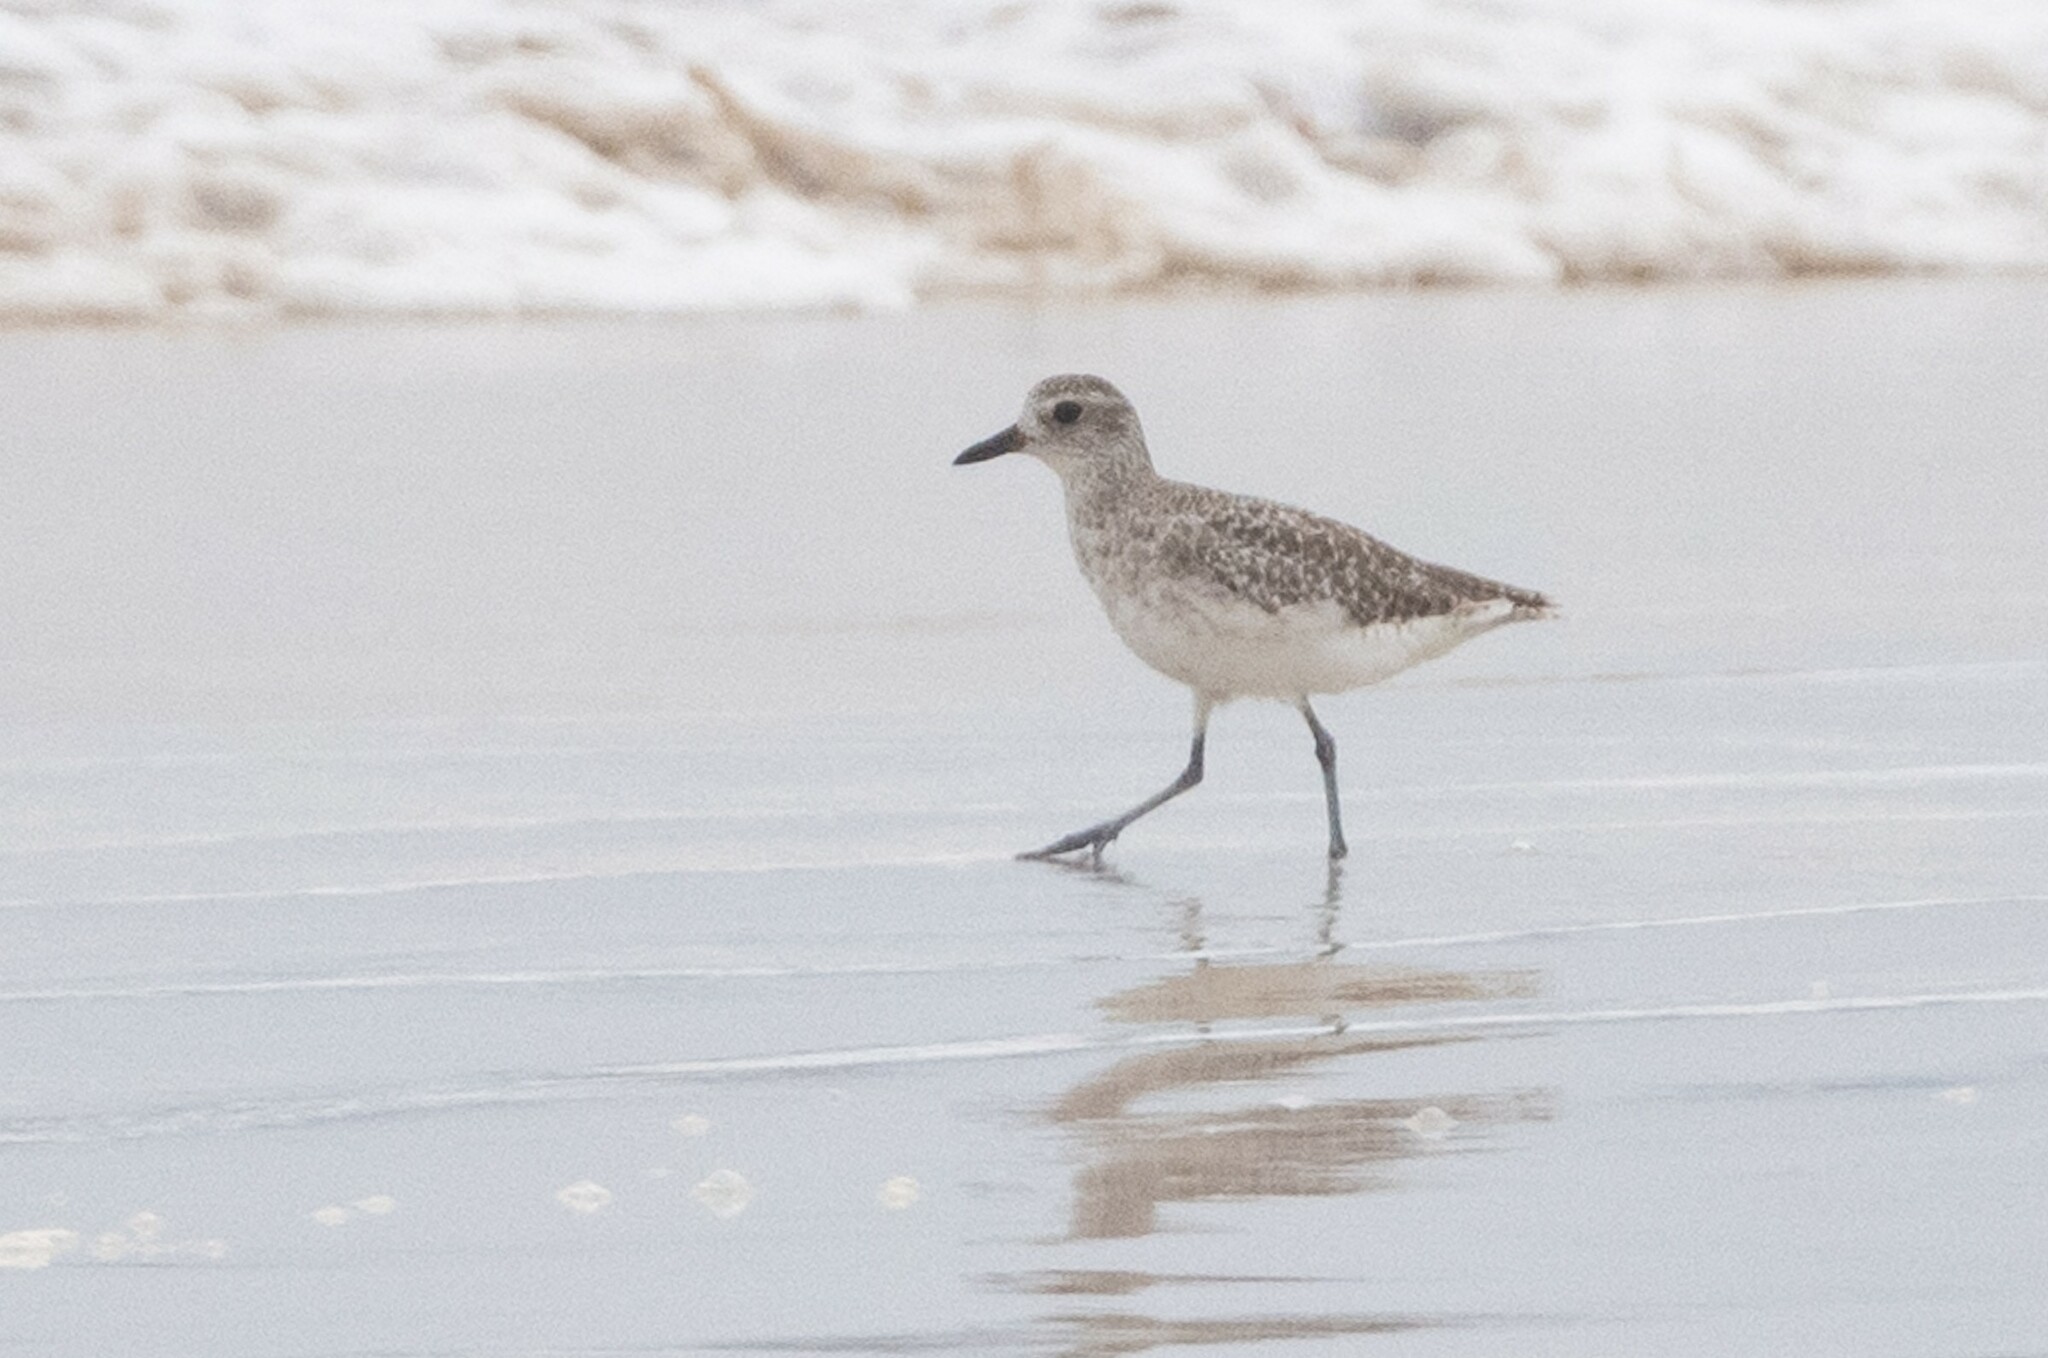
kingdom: Animalia
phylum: Chordata
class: Aves
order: Charadriiformes
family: Charadriidae
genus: Pluvialis
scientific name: Pluvialis squatarola
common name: Grey plover
